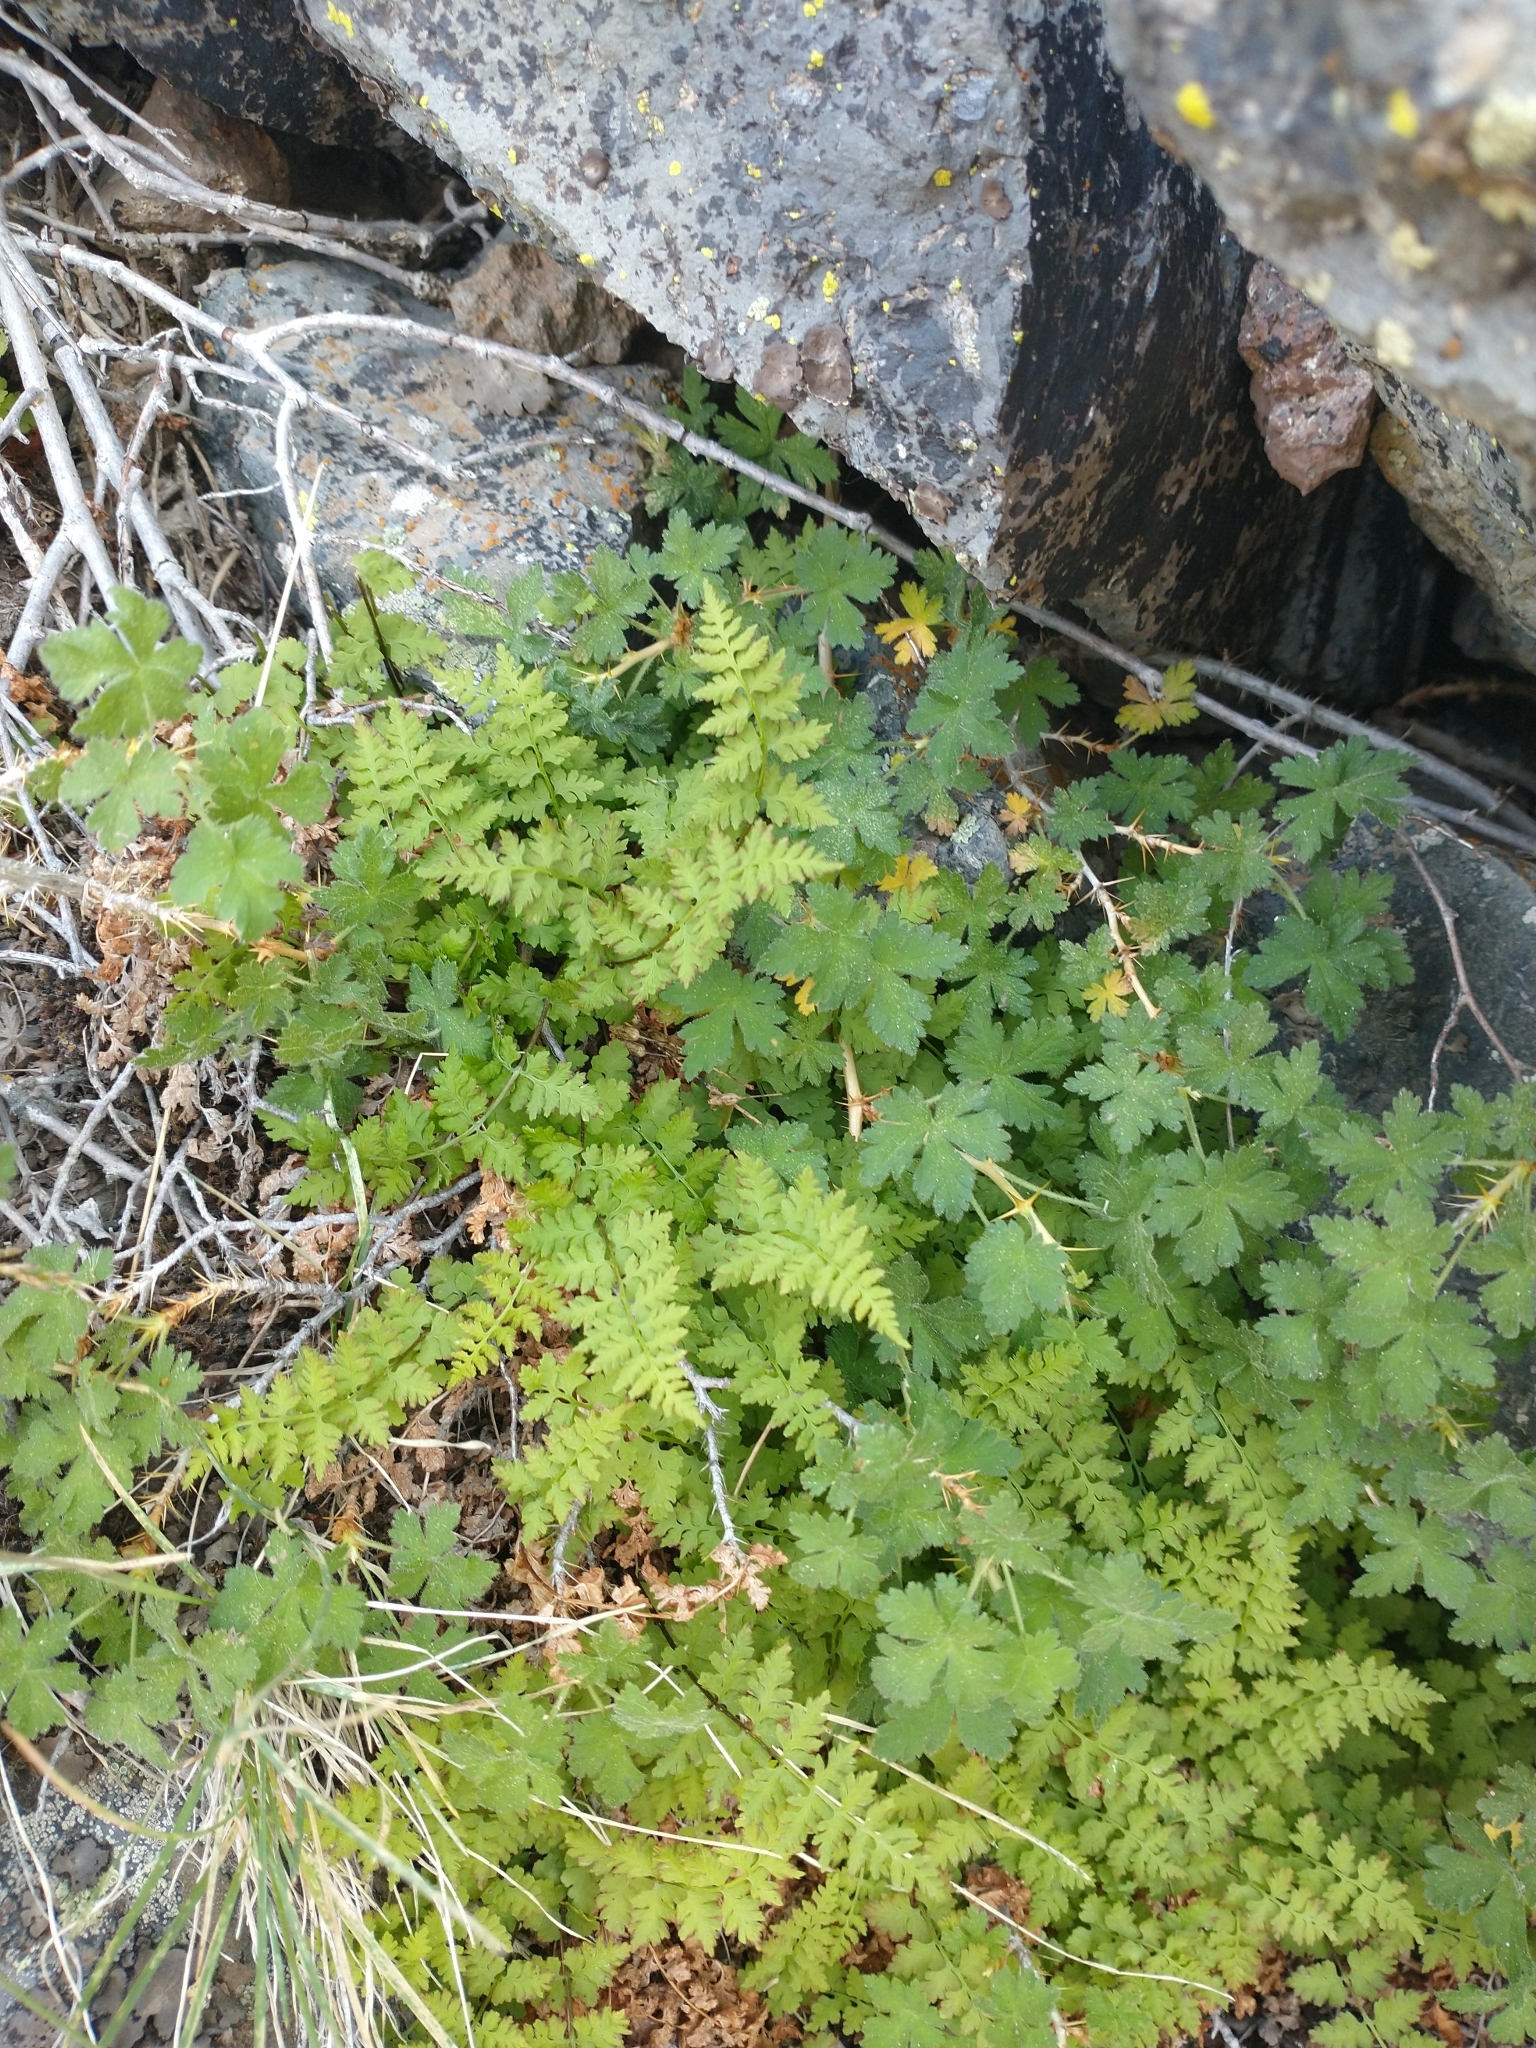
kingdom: Plantae
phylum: Tracheophyta
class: Polypodiopsida
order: Polypodiales
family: Cystopteridaceae
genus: Cystopteris
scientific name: Cystopteris fragilis
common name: Brittle bladder fern
